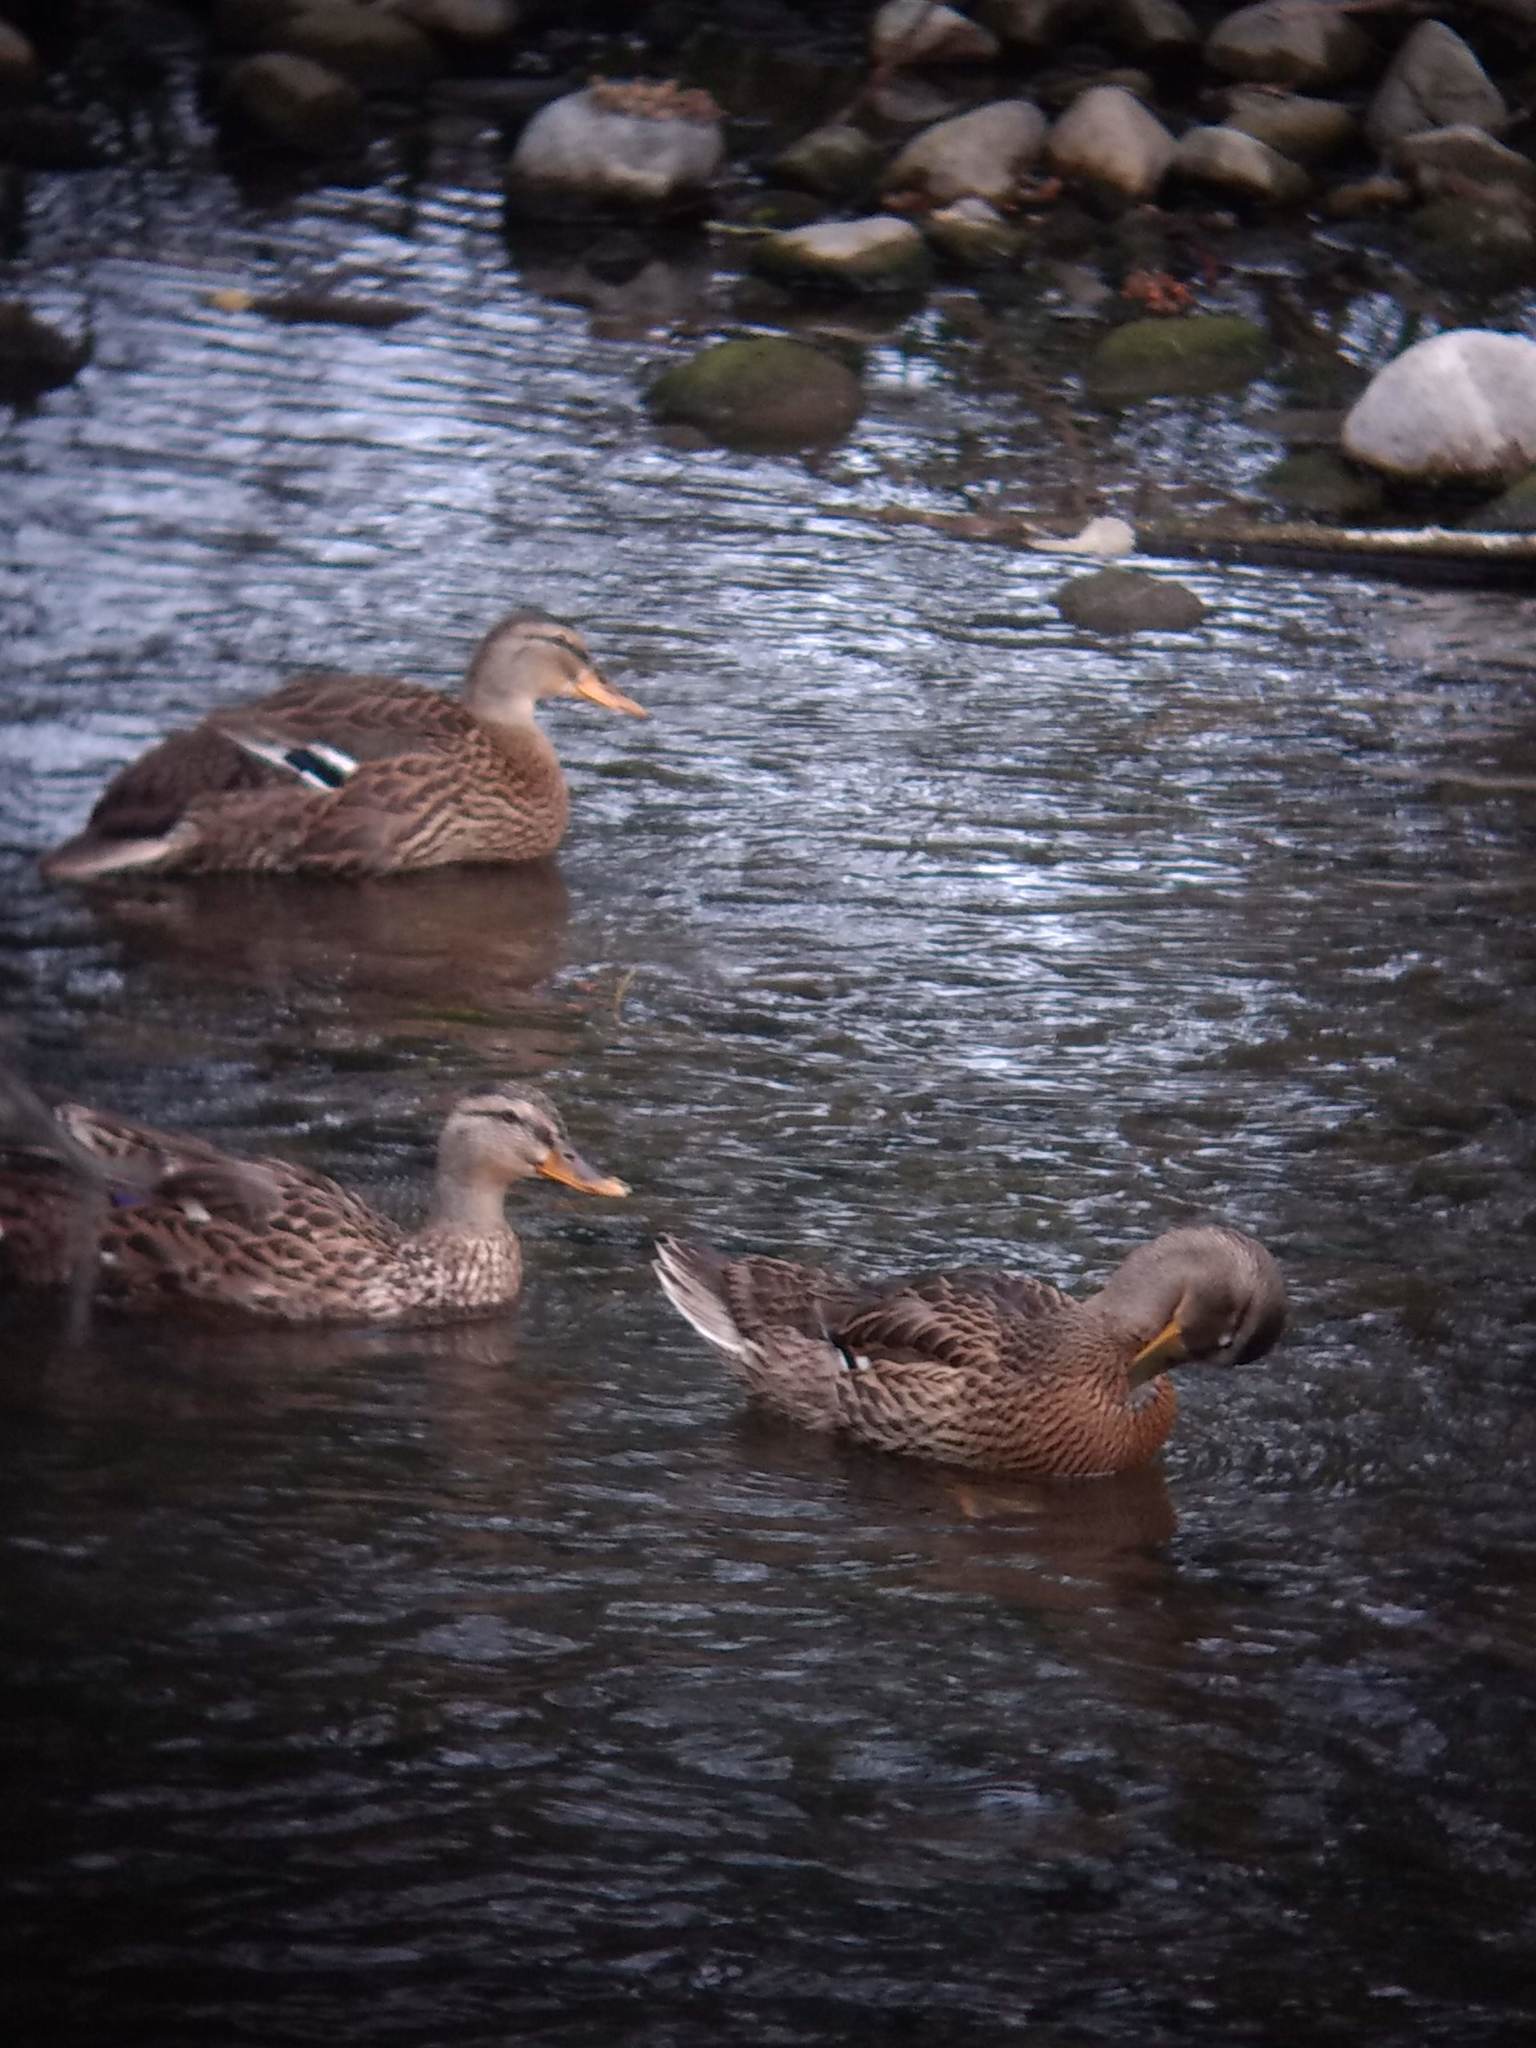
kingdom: Animalia
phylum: Chordata
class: Aves
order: Anseriformes
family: Anatidae
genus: Anas
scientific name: Anas platyrhynchos
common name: Mallard
